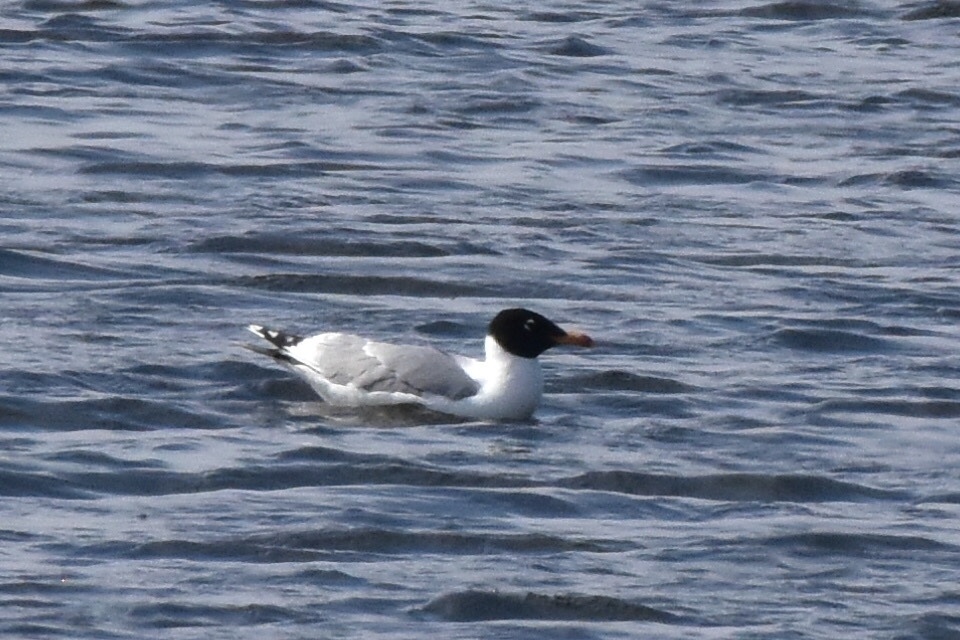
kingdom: Animalia
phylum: Chordata
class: Aves
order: Charadriiformes
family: Laridae
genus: Ichthyaetus
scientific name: Ichthyaetus ichthyaetus
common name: Pallas's gull
